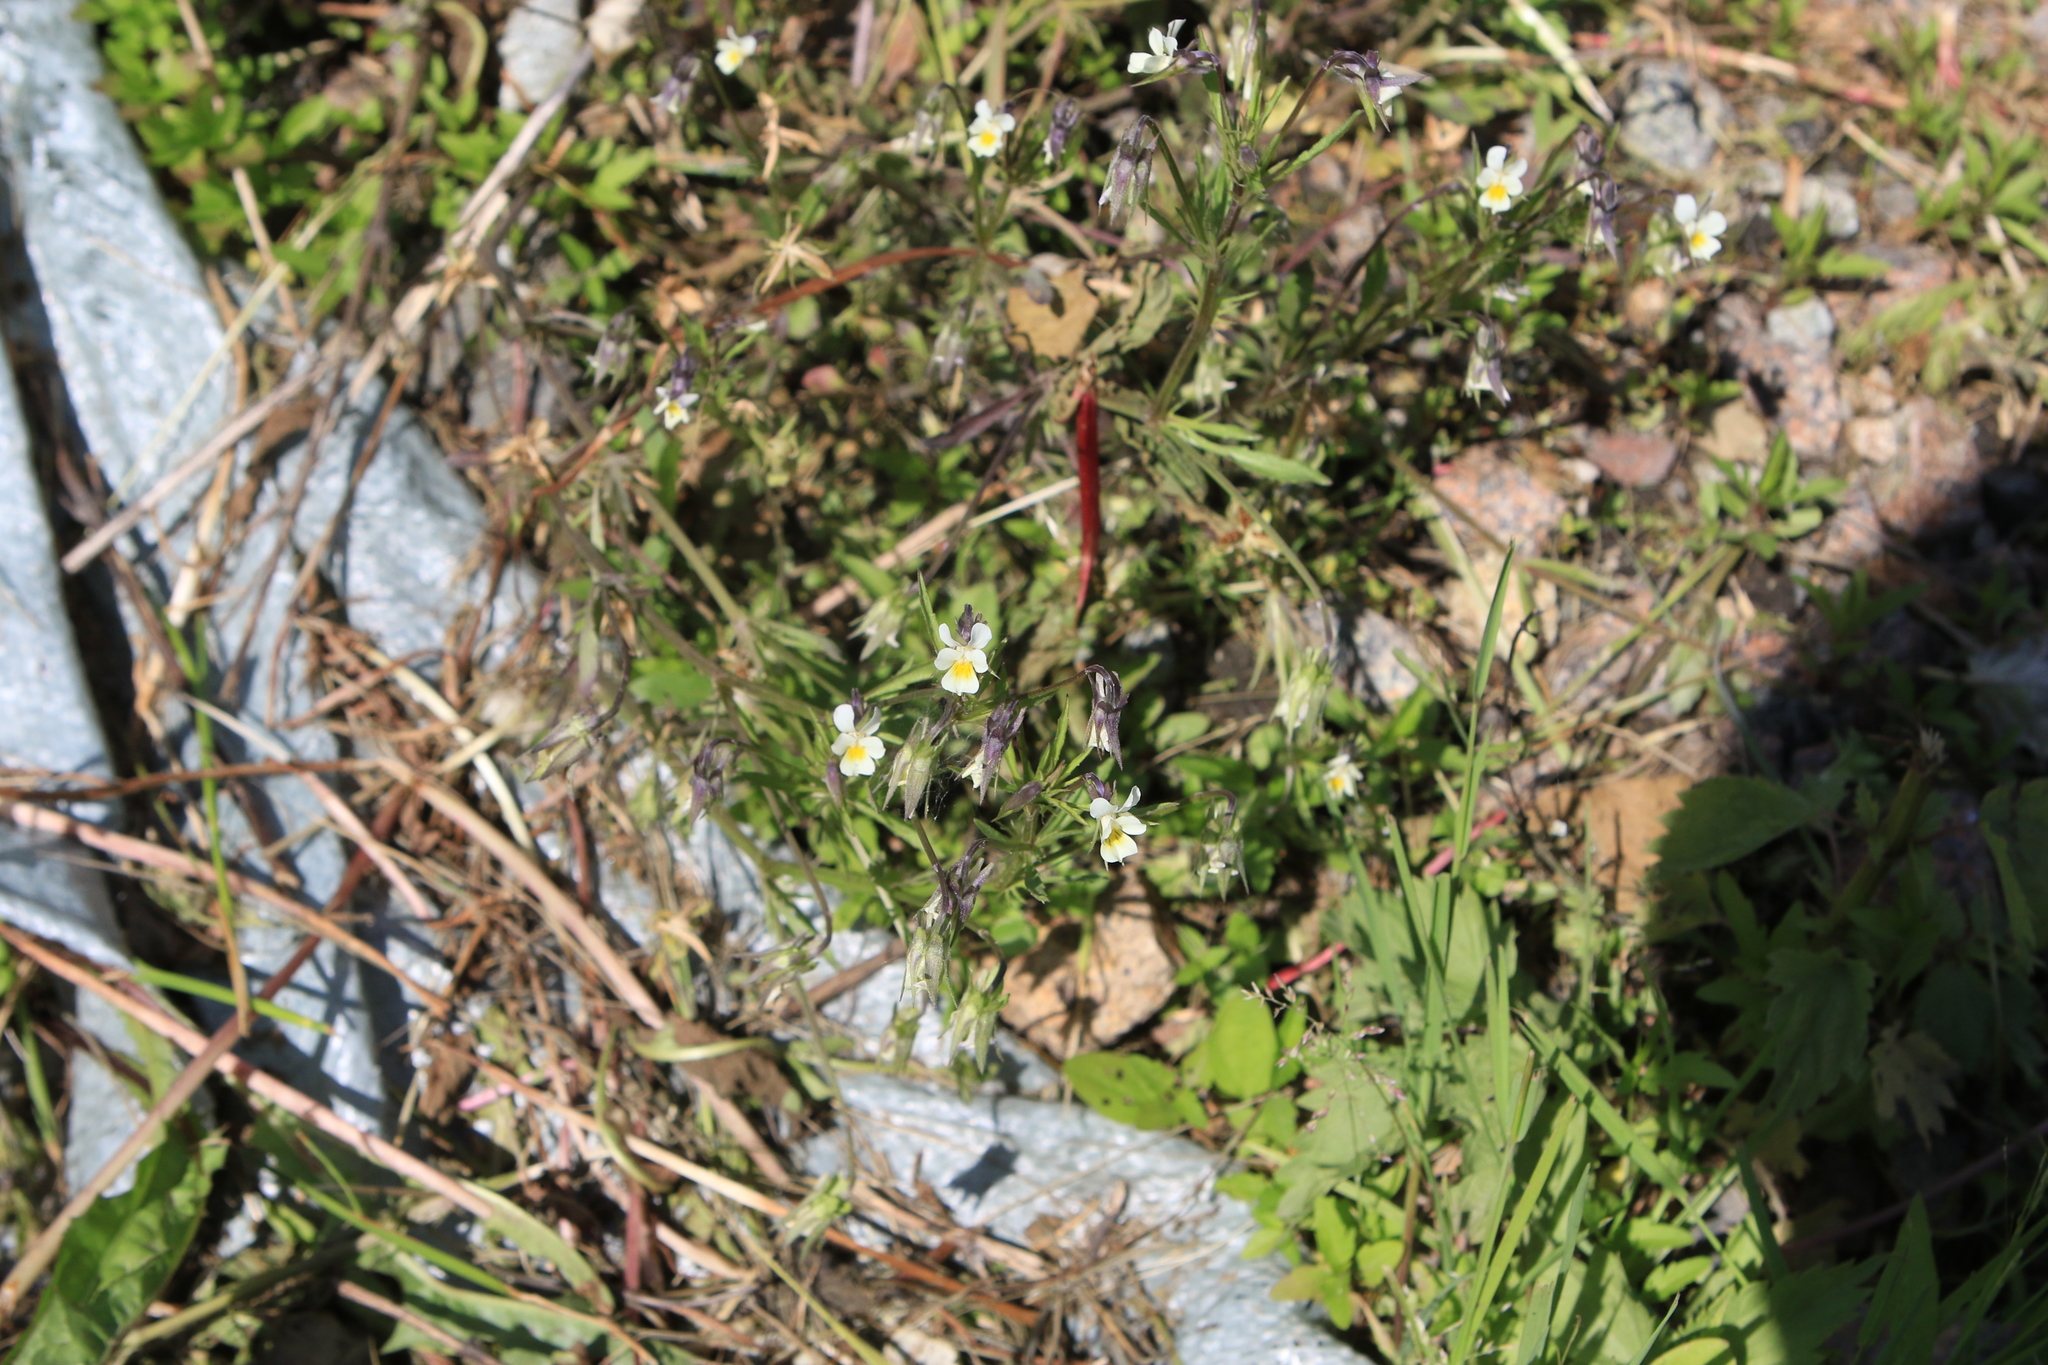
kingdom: Plantae
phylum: Tracheophyta
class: Magnoliopsida
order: Malpighiales
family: Violaceae
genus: Viola
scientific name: Viola arvensis
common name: Field pansy
